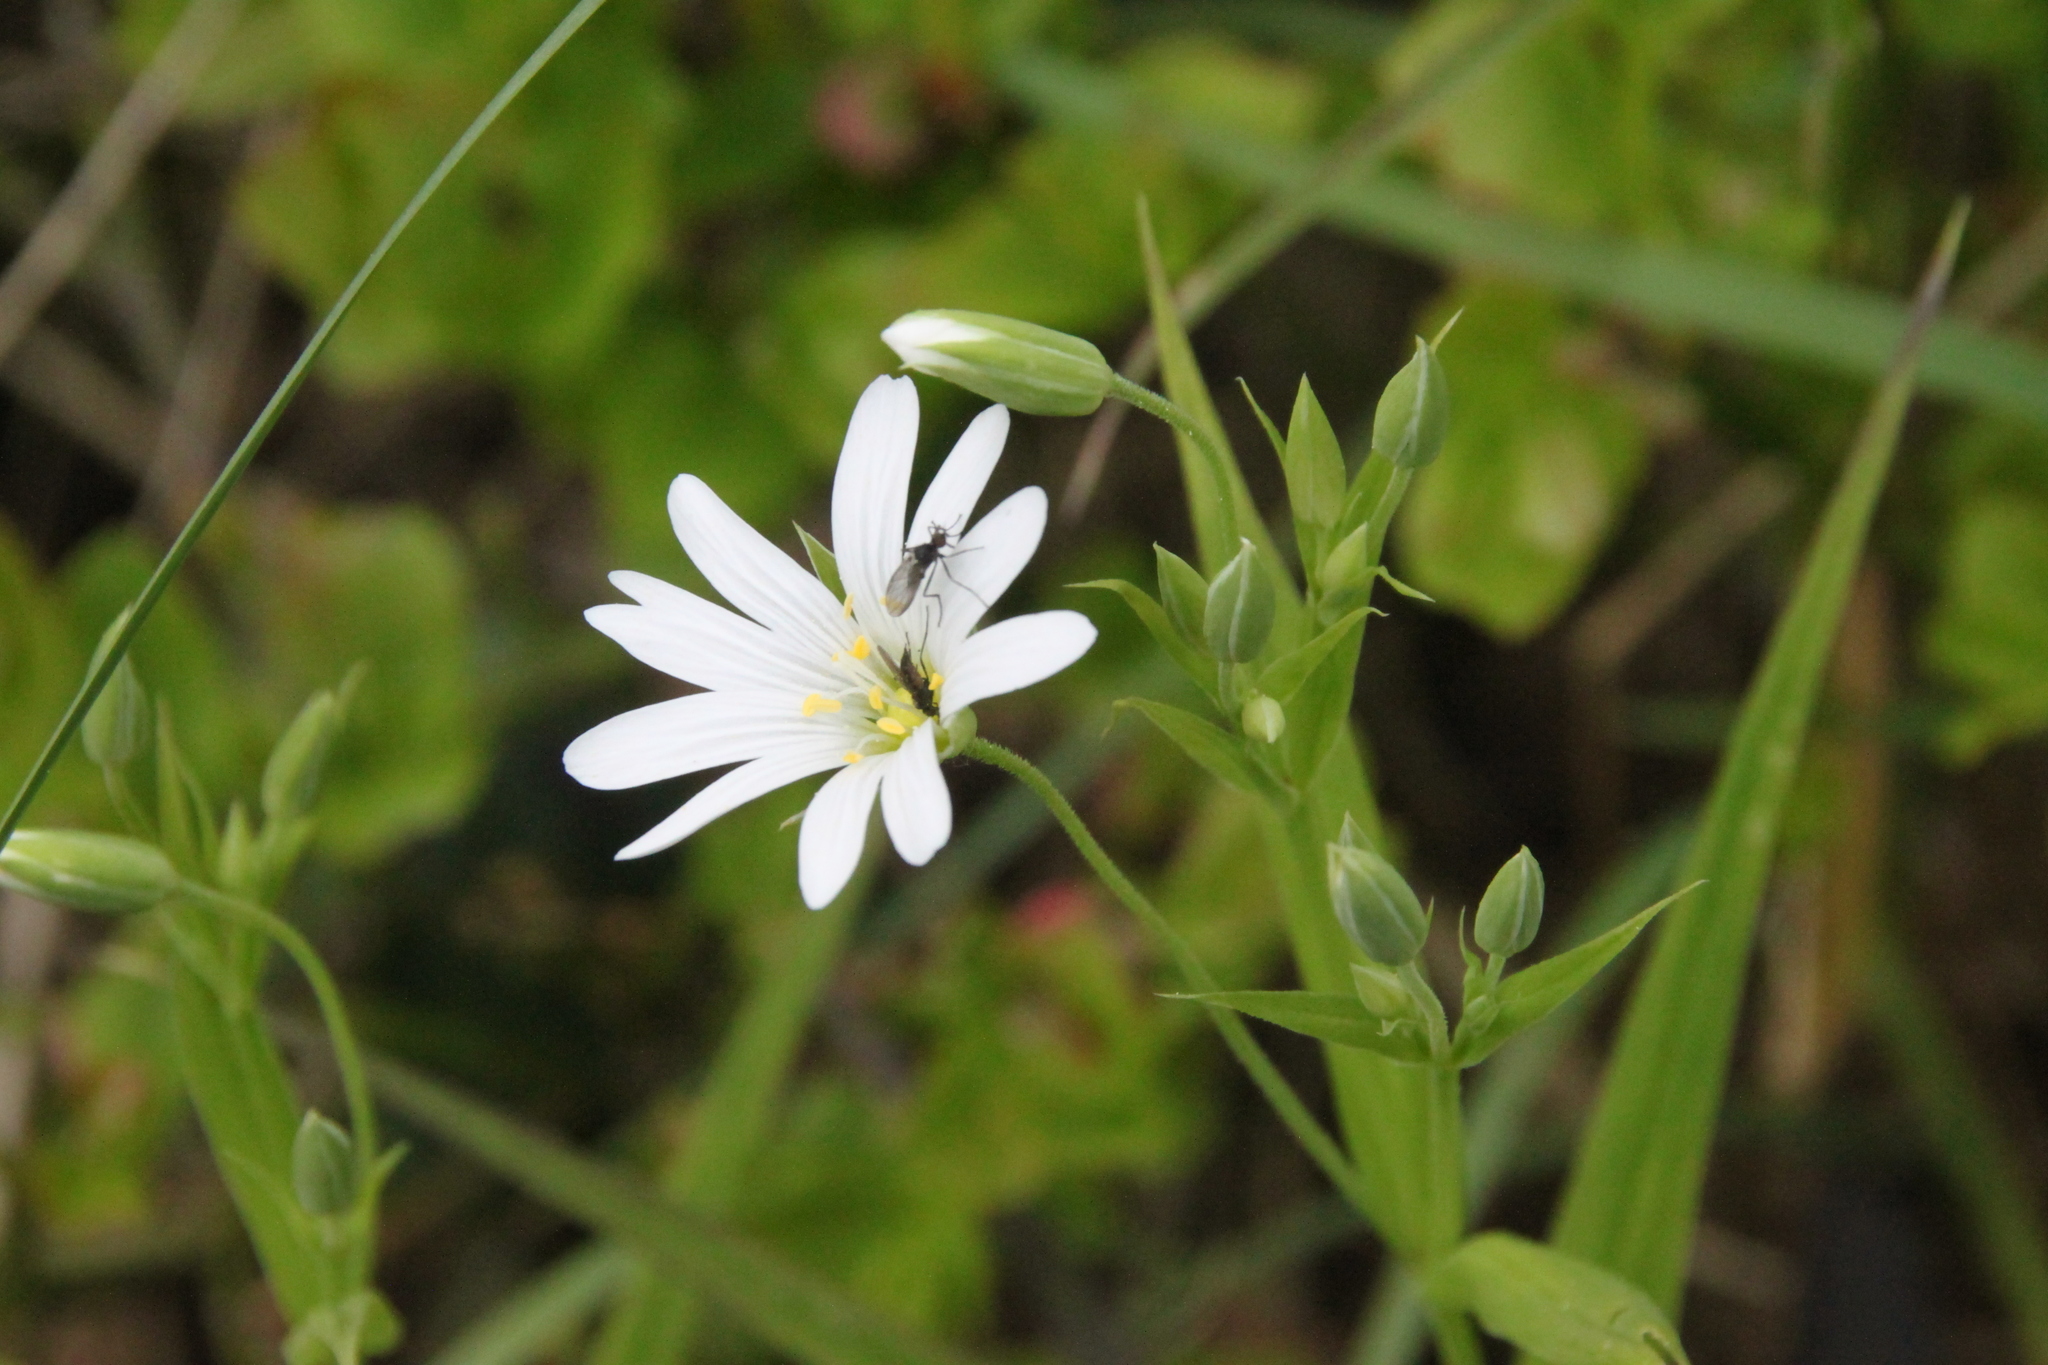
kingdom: Plantae
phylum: Tracheophyta
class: Magnoliopsida
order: Caryophyllales
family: Caryophyllaceae
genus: Rabelera
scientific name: Rabelera holostea
